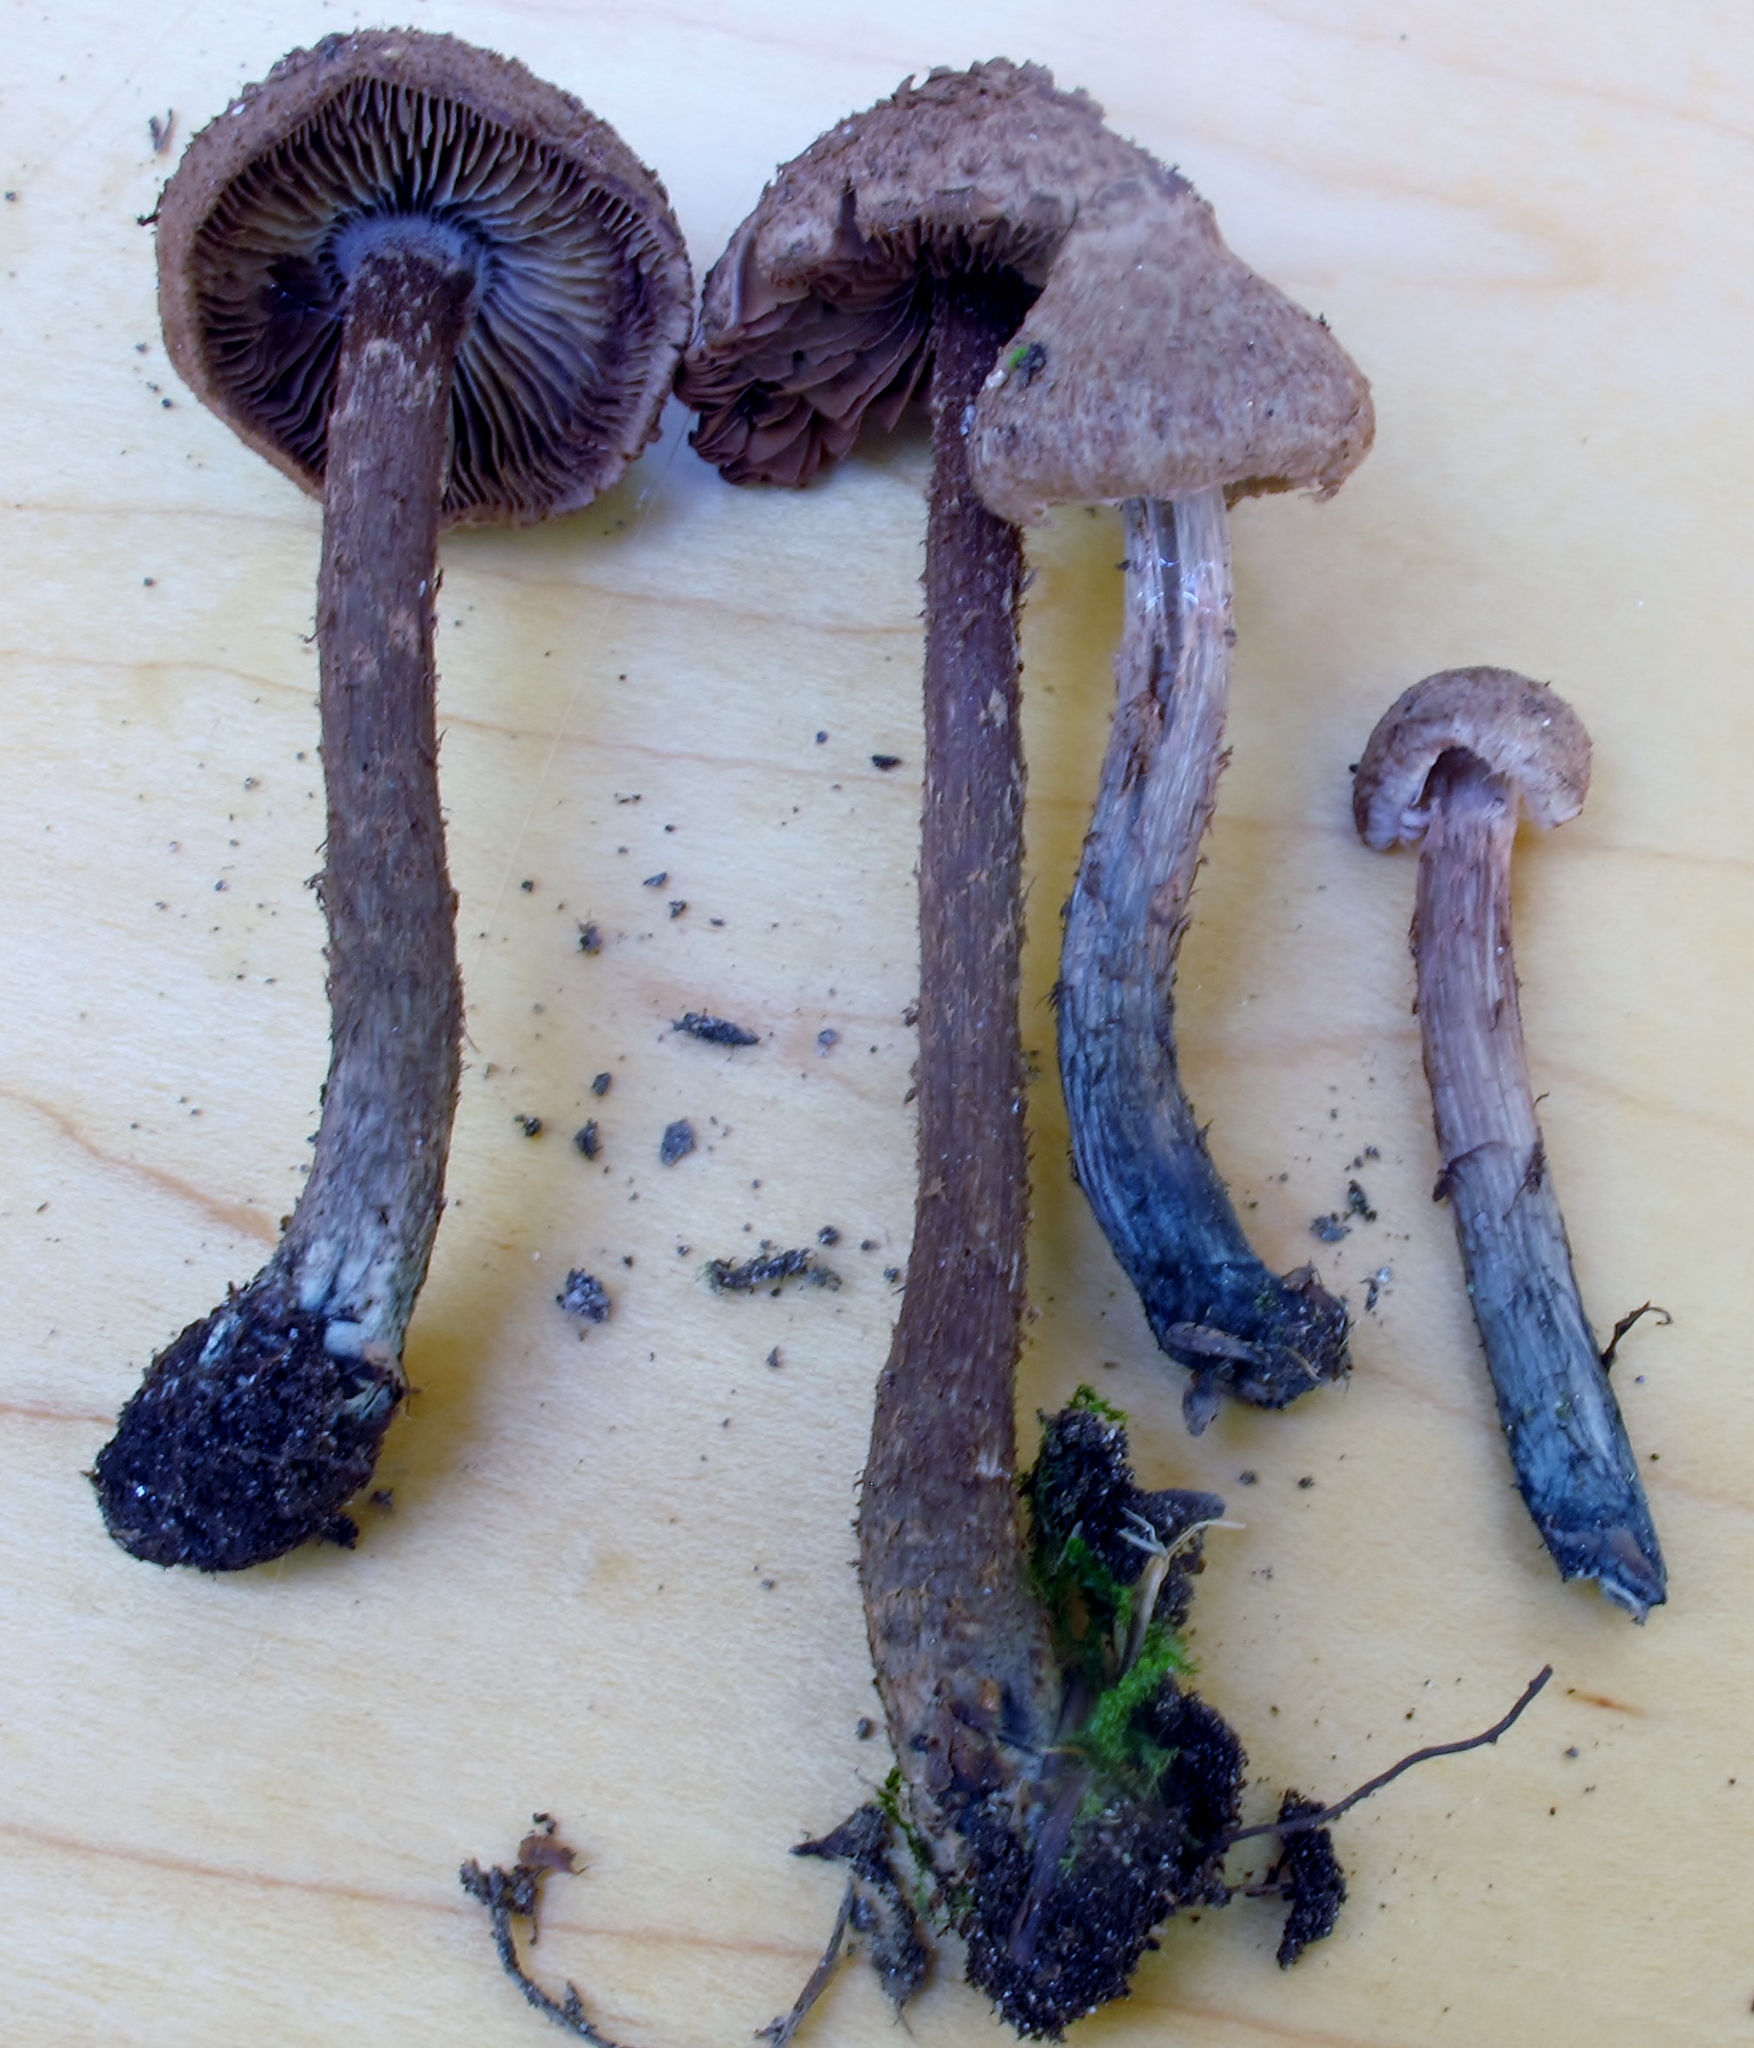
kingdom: Fungi
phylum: Basidiomycota
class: Agaricomycetes
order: Agaricales
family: Inocybaceae
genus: Inosperma
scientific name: Inosperma calamistratum
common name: Greenfoot fibrecap
